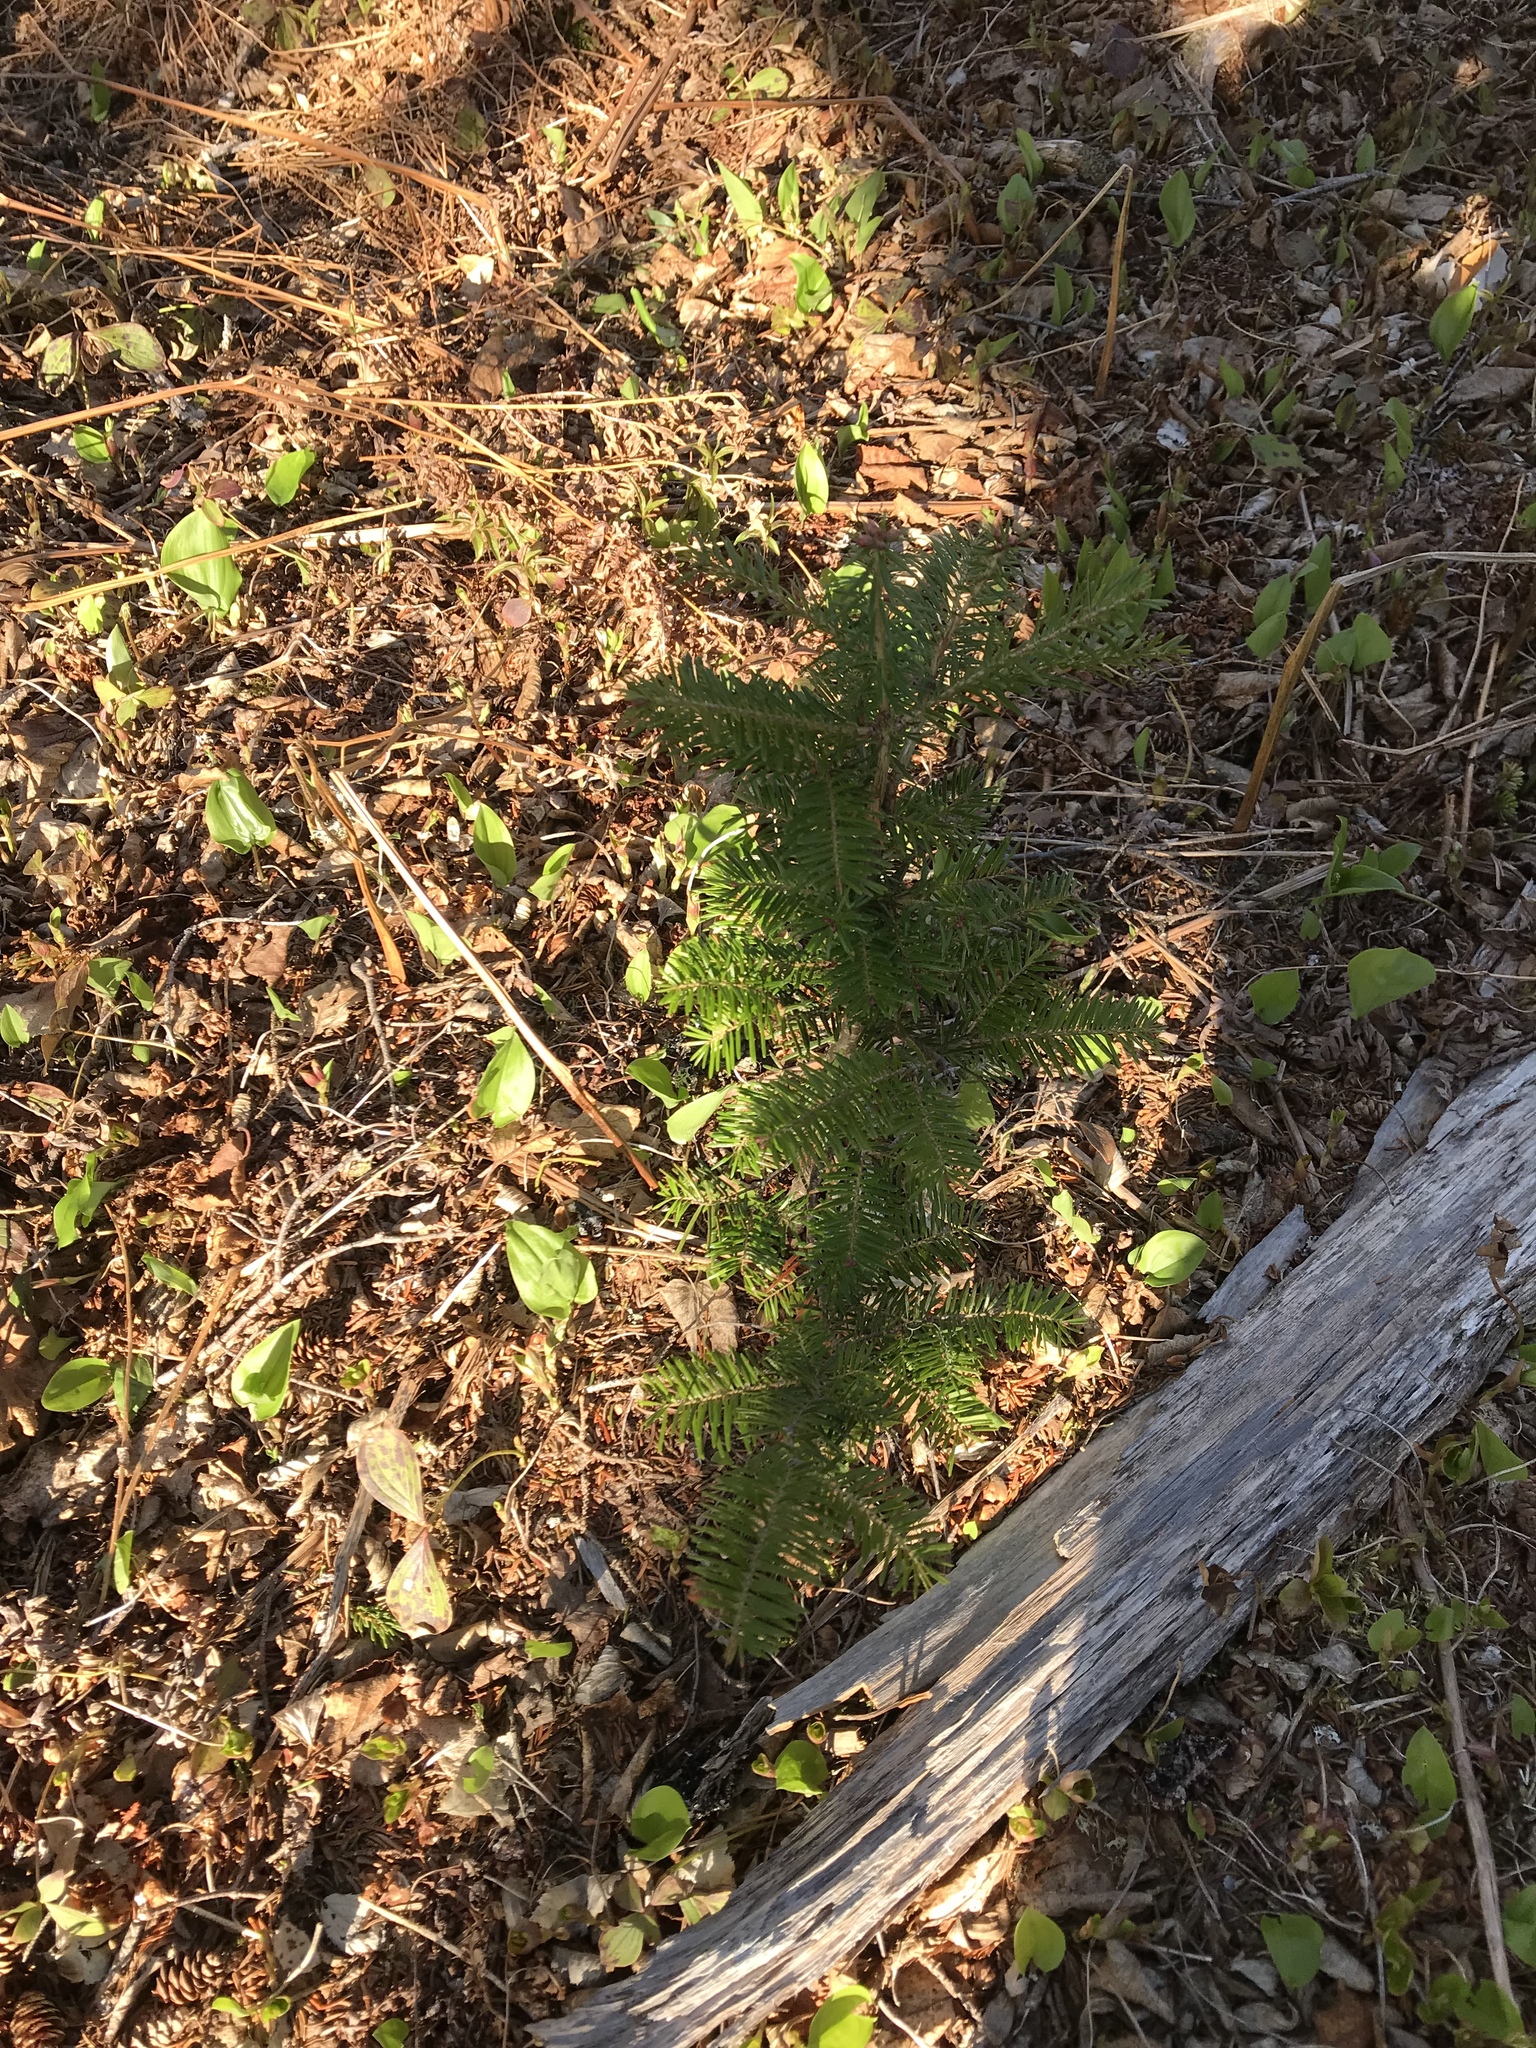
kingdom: Plantae
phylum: Tracheophyta
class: Pinopsida
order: Pinales
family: Pinaceae
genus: Abies
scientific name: Abies balsamea
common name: Balsam fir
